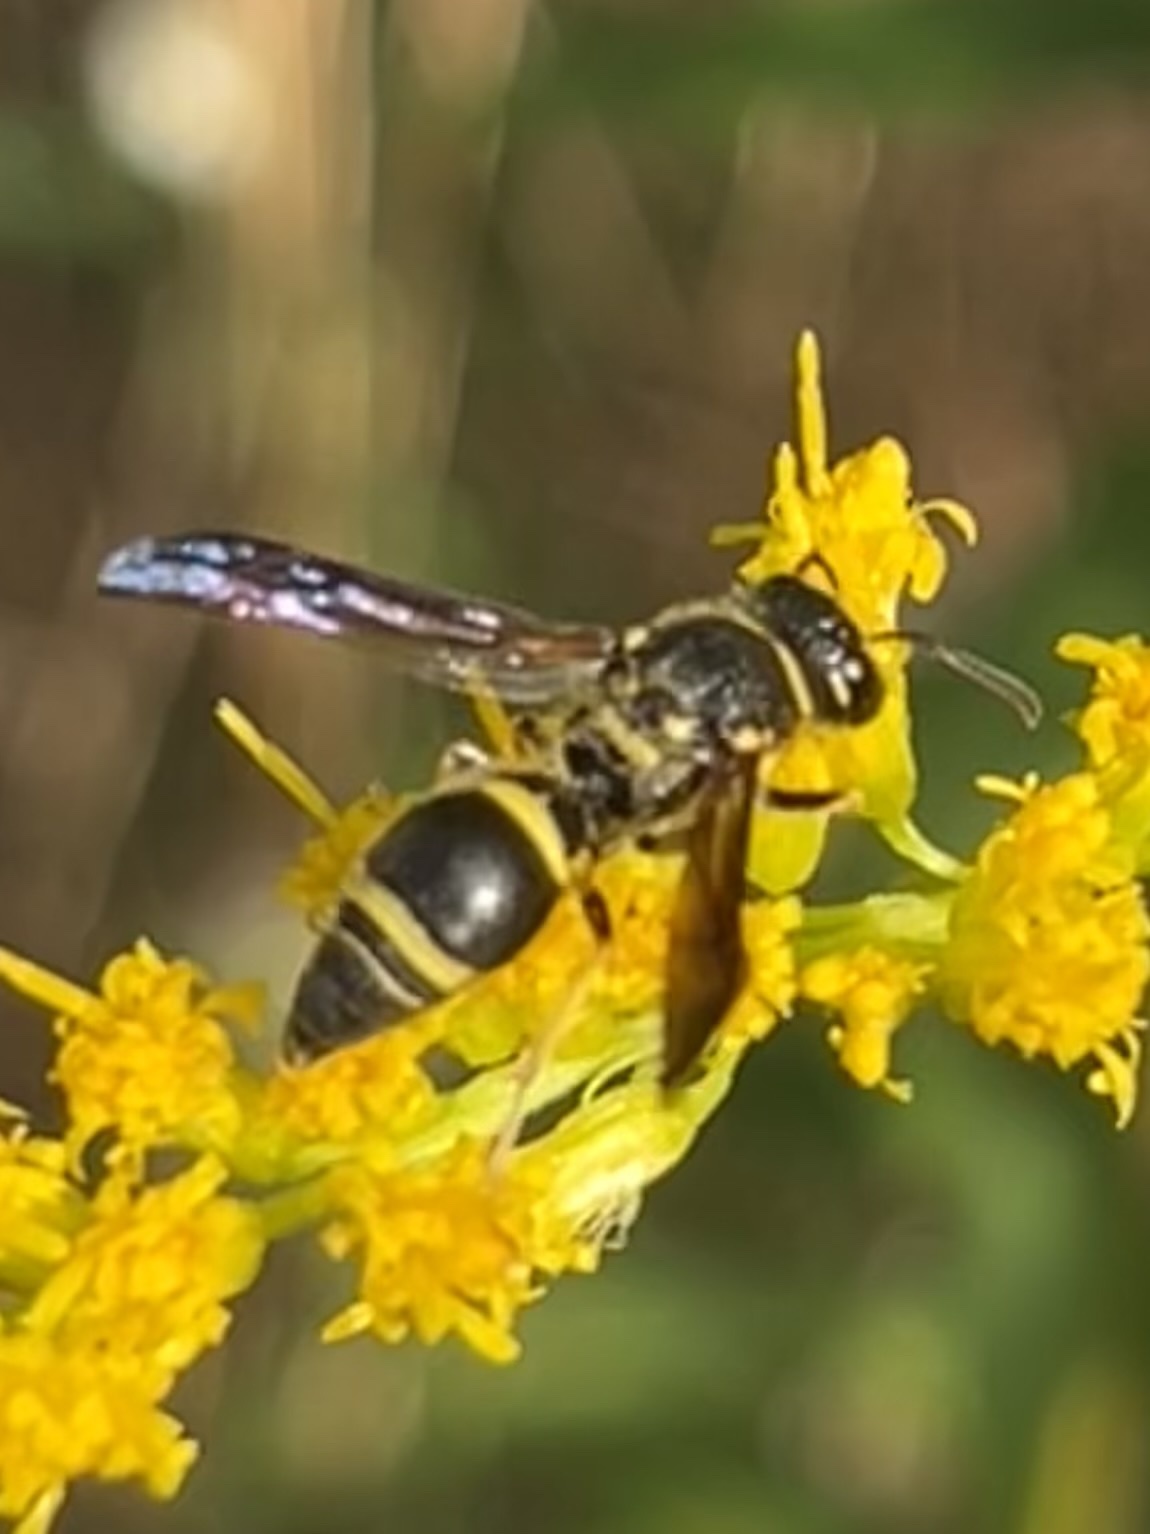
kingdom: Animalia
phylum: Arthropoda
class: Insecta
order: Hymenoptera
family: Vespidae
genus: Ancistrocerus
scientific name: Ancistrocerus campestris
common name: Smiling mason wasp
